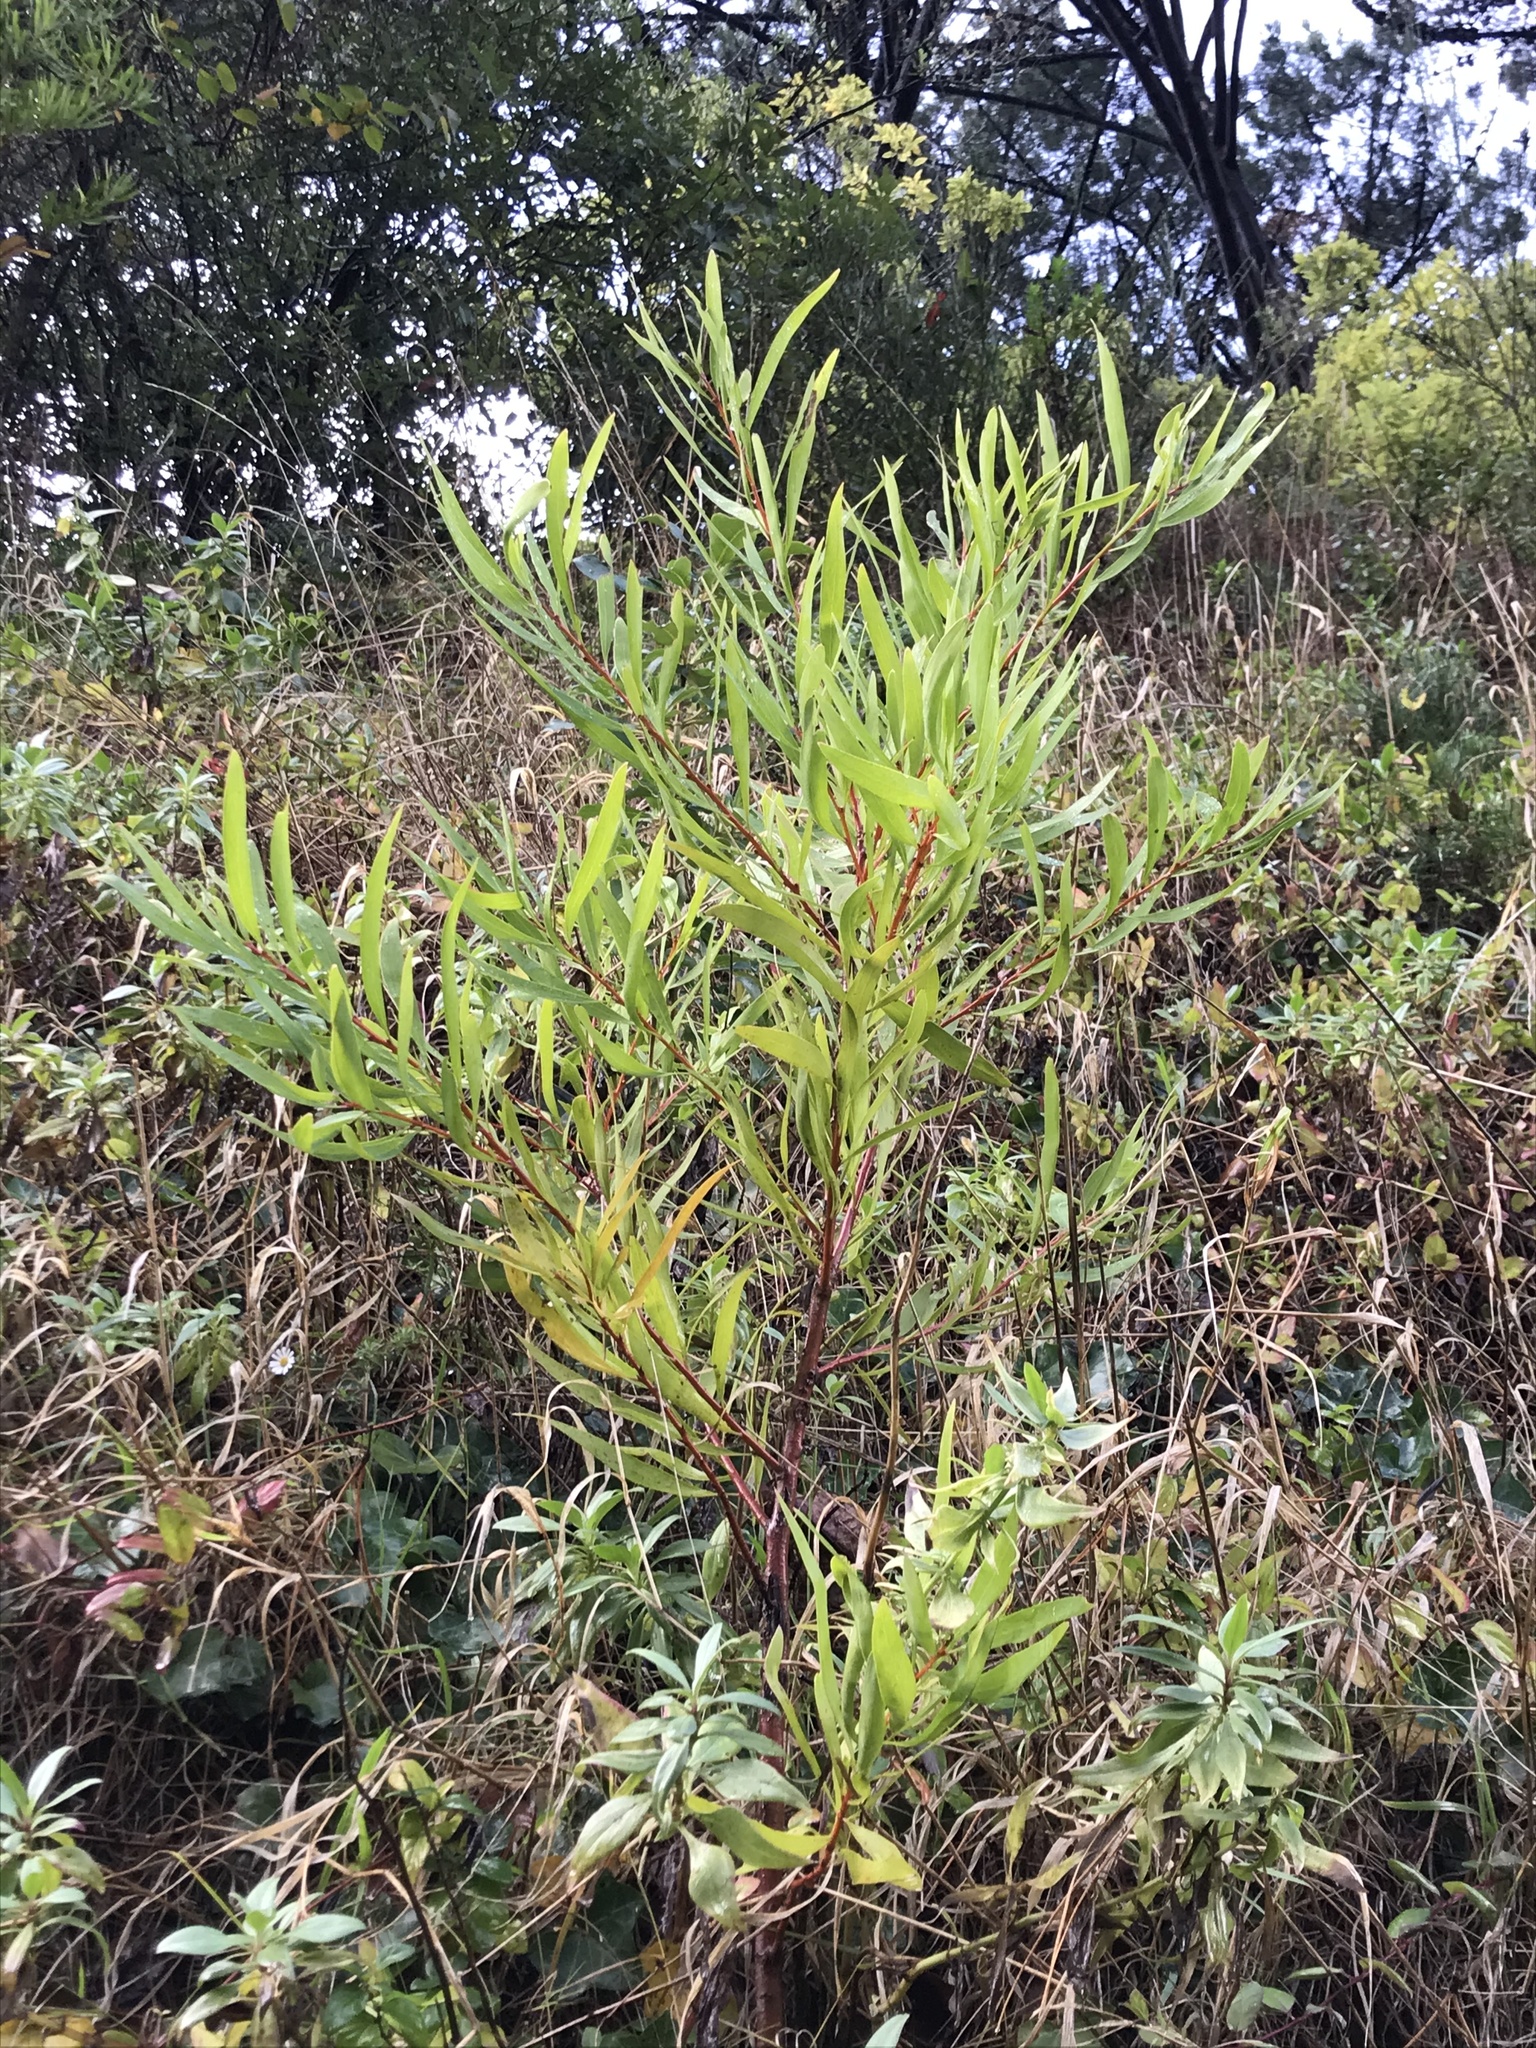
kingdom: Plantae
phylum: Tracheophyta
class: Magnoliopsida
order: Fabales
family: Fabaceae
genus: Acacia
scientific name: Acacia longifolia
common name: Sydney golden wattle
